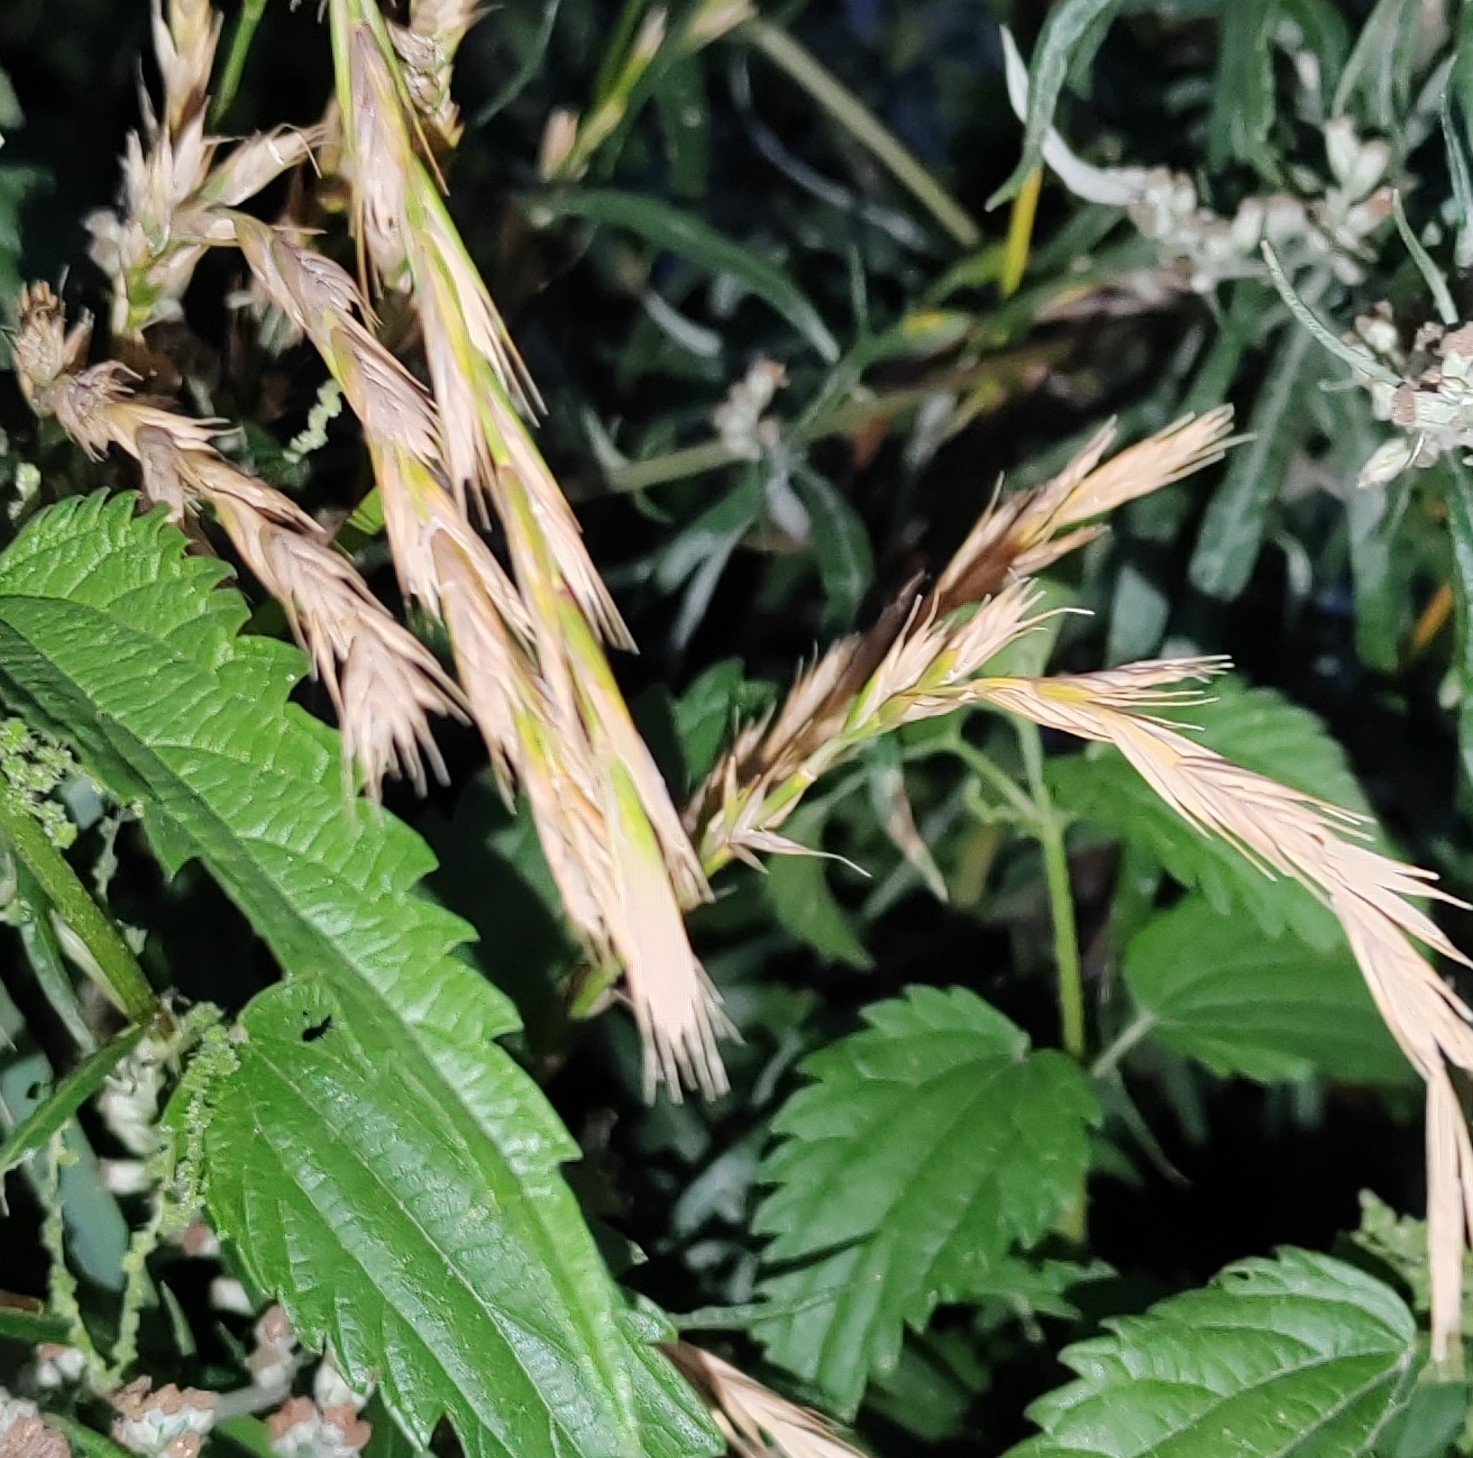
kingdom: Plantae
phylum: Tracheophyta
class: Liliopsida
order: Poales
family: Poaceae
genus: Elymus
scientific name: Elymus repens
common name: Quackgrass
